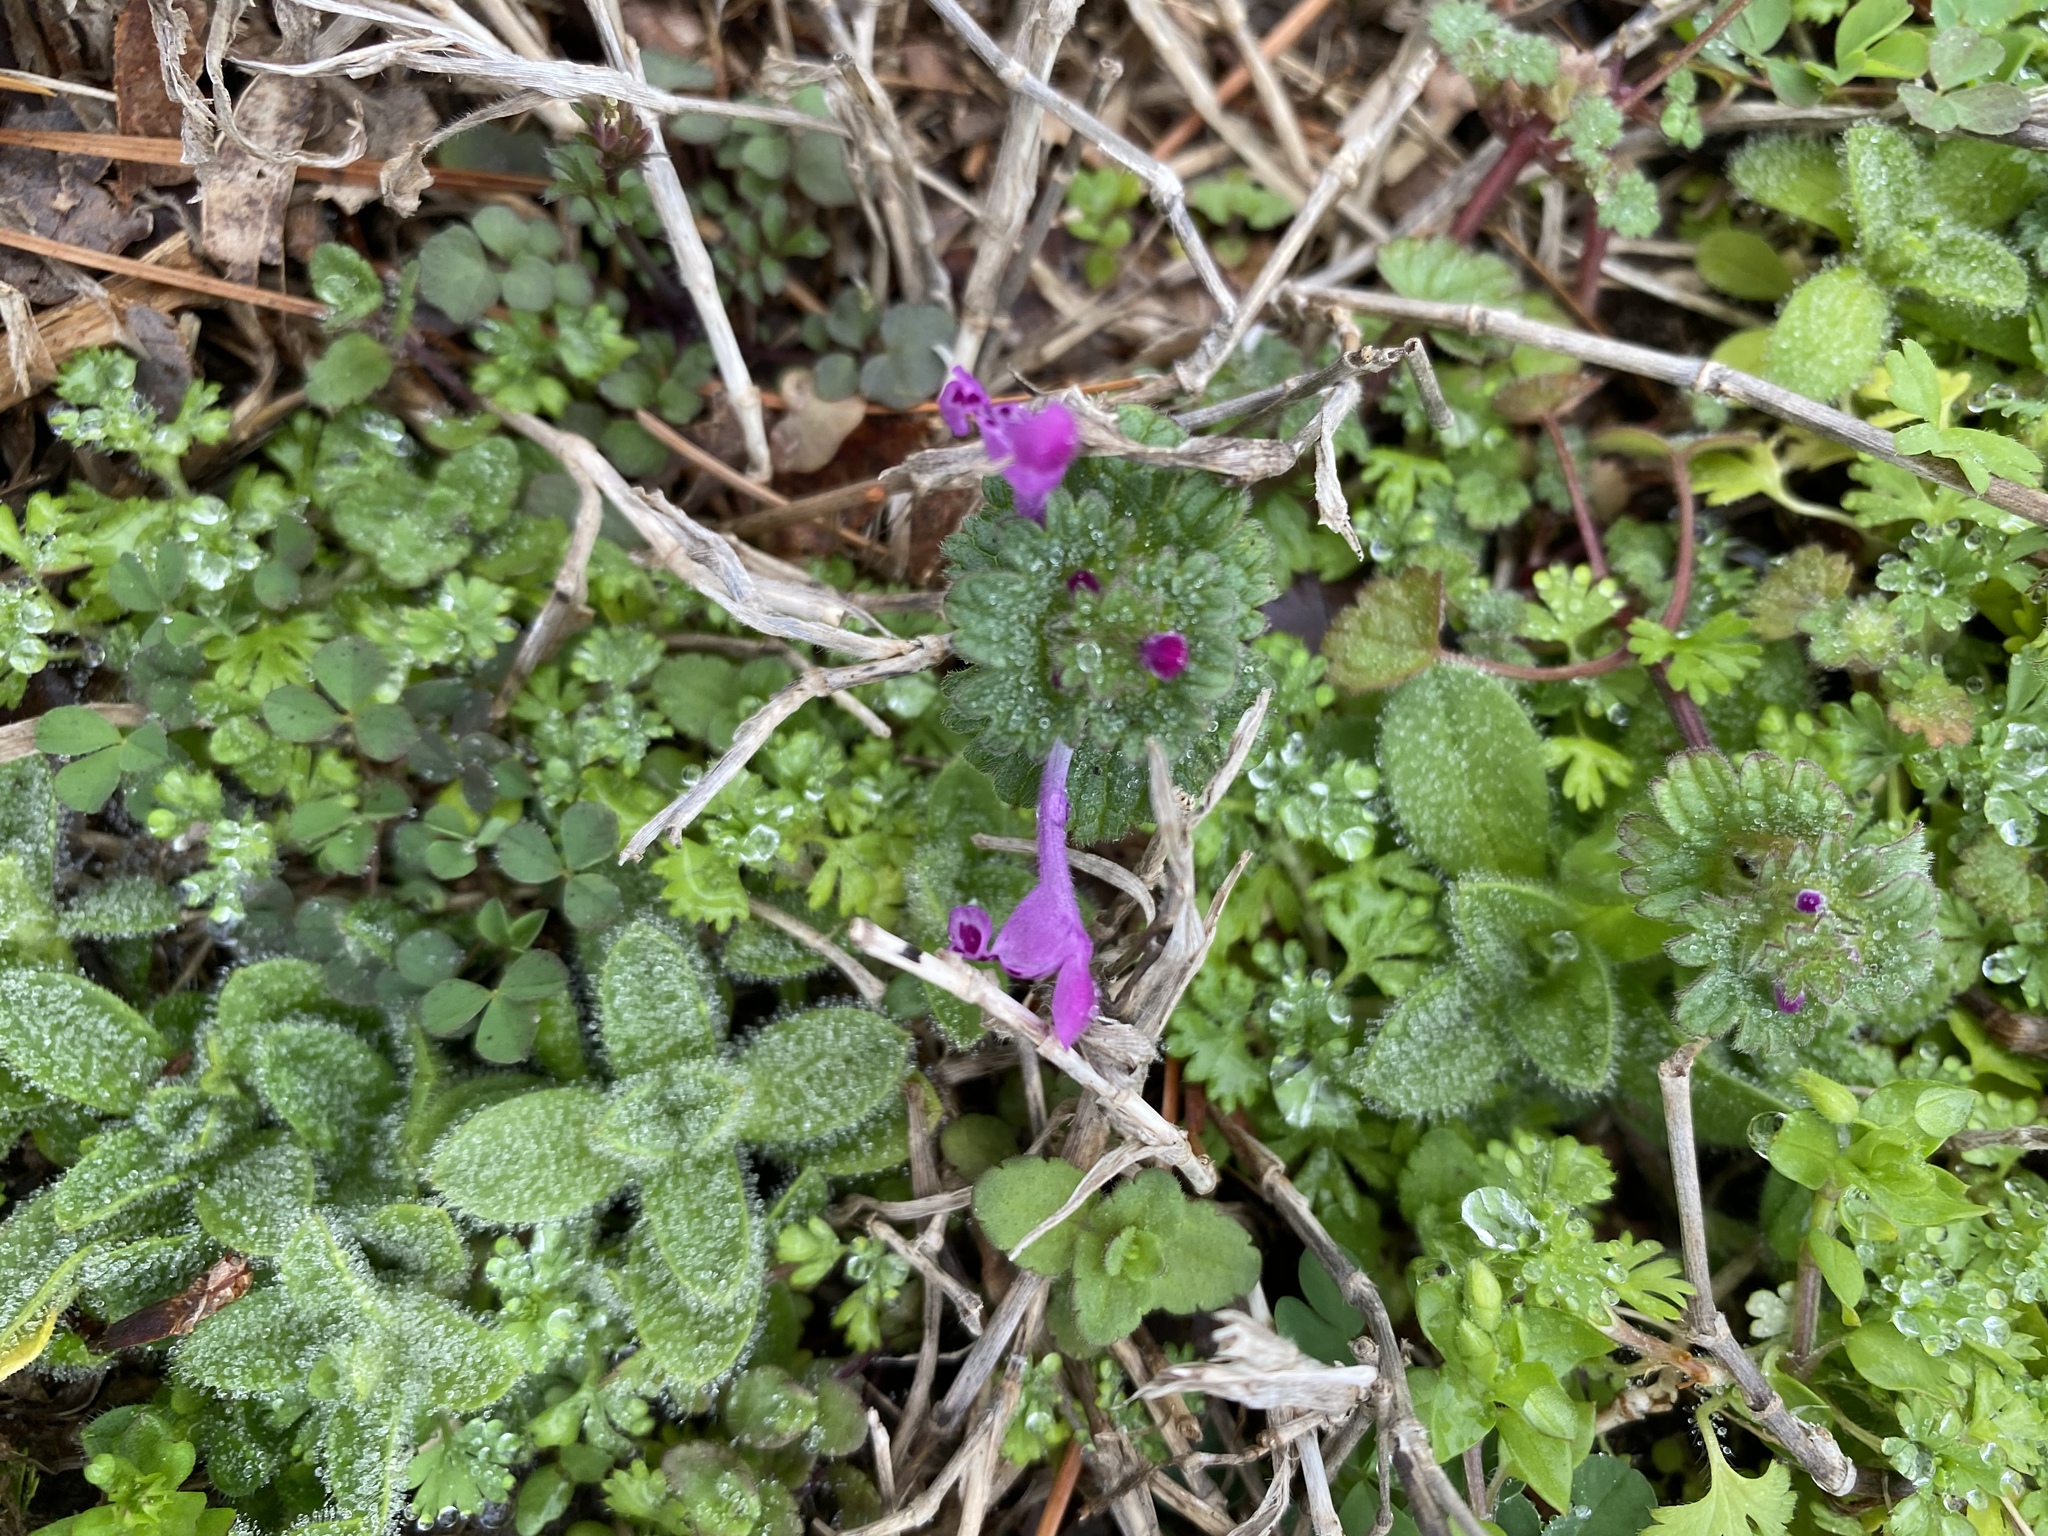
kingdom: Plantae
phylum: Tracheophyta
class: Magnoliopsida
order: Lamiales
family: Lamiaceae
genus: Lamium
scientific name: Lamium amplexicaule
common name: Henbit dead-nettle
